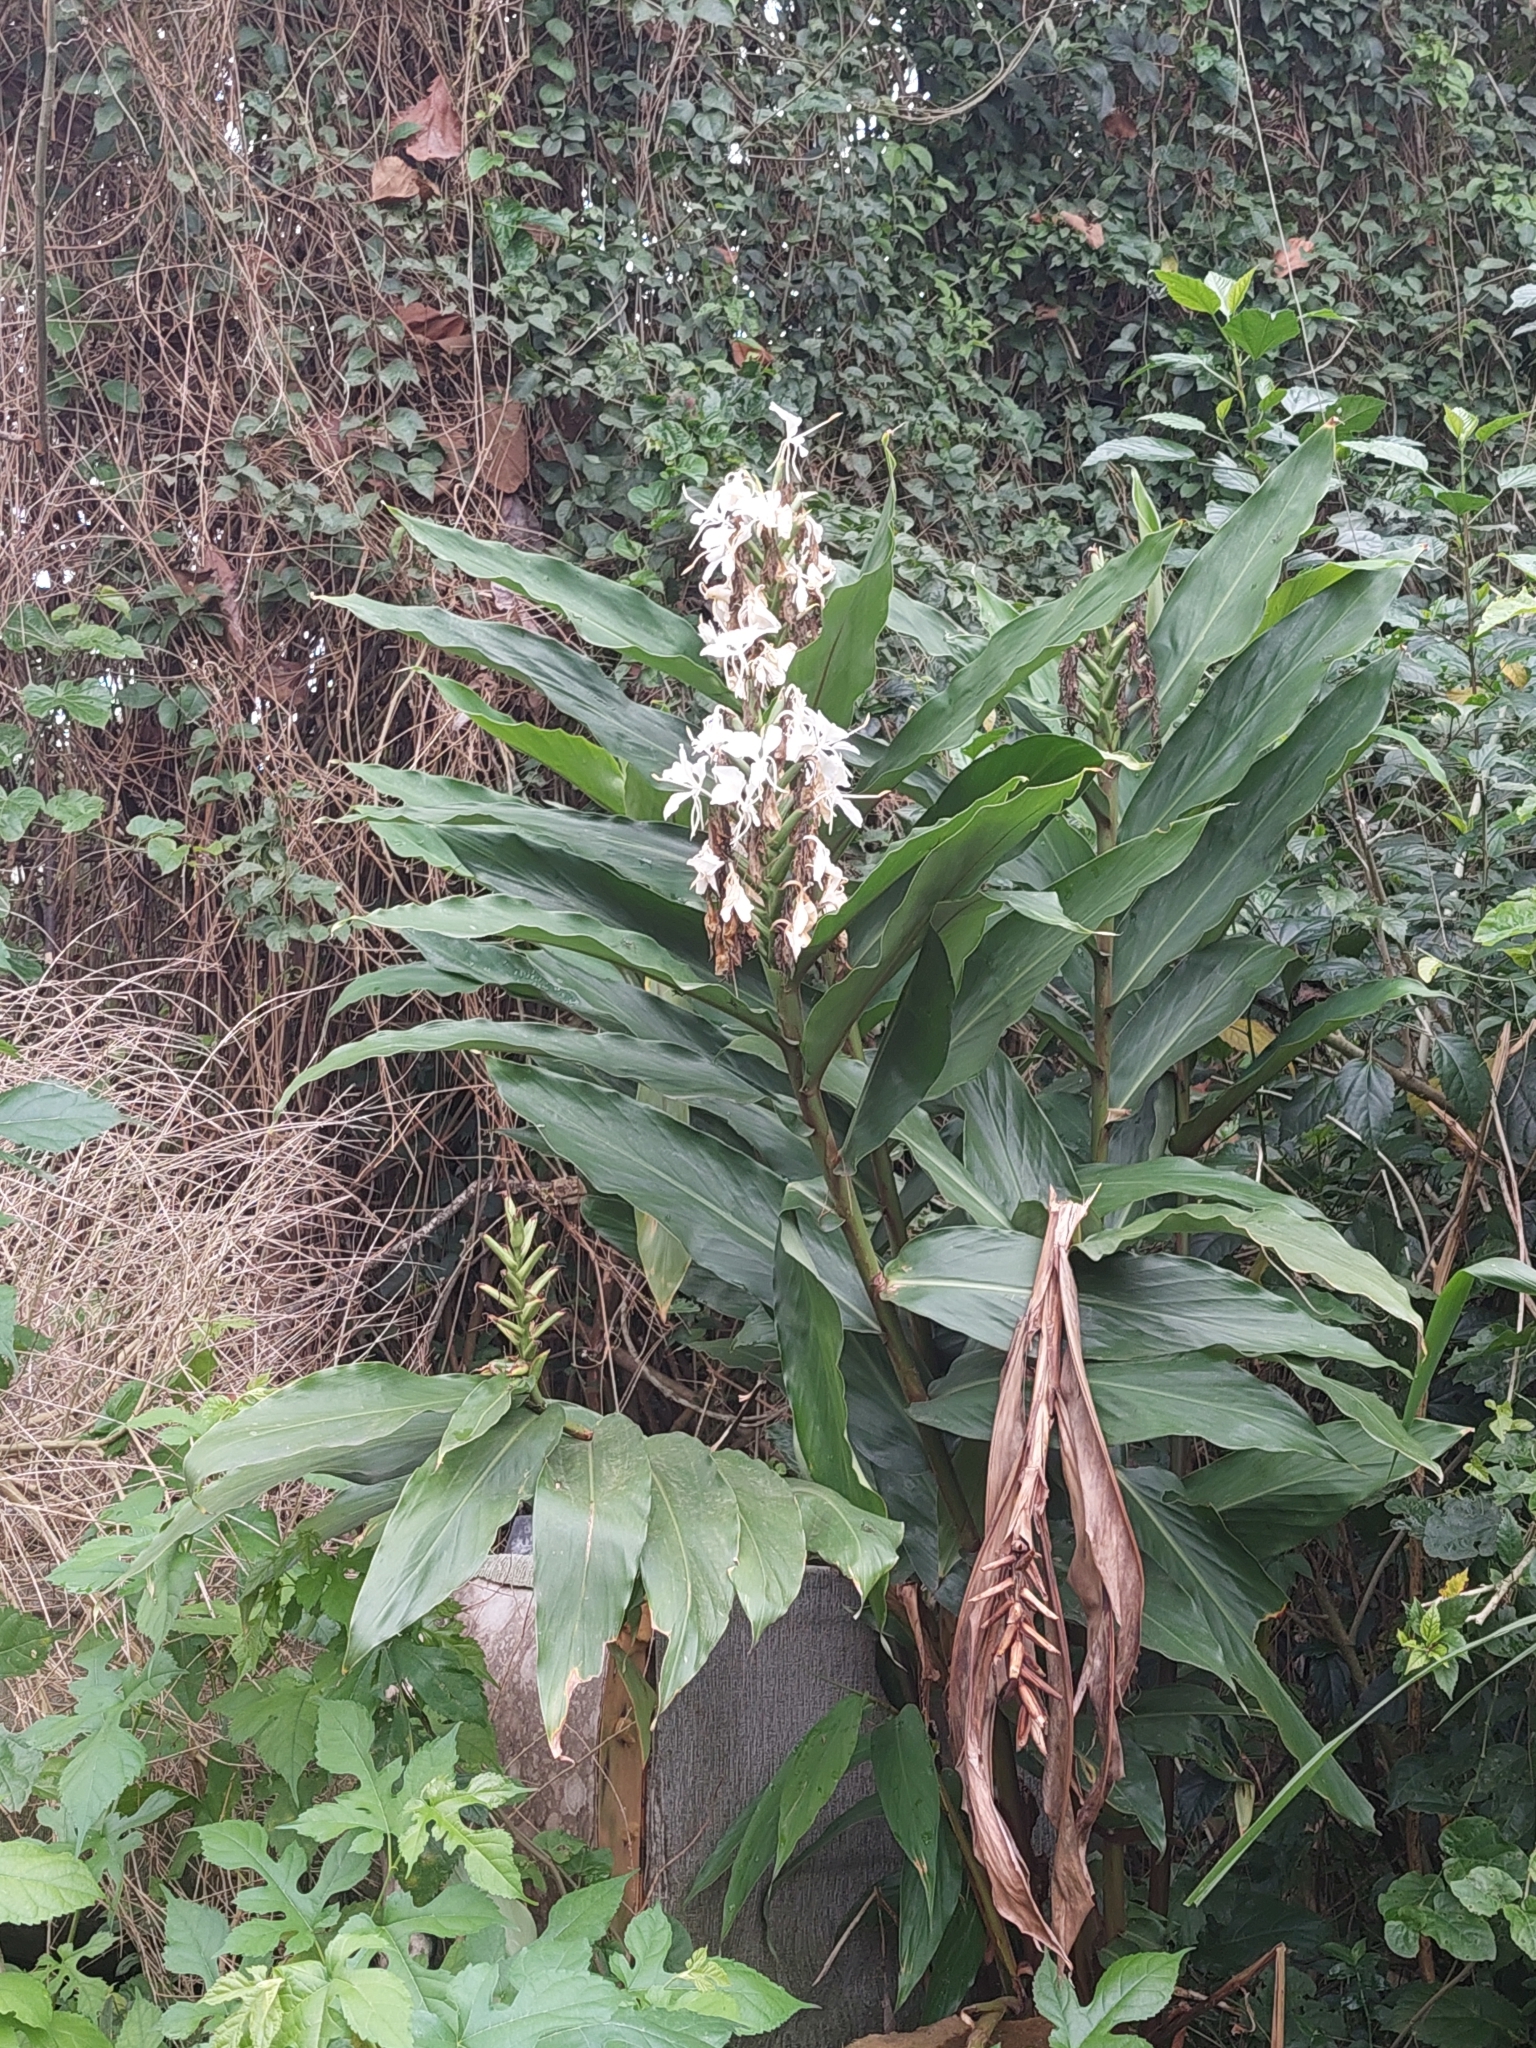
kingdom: Plantae
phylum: Tracheophyta
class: Liliopsida
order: Zingiberales
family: Zingiberaceae
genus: Hedychium
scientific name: Hedychium coronarium
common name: White garland-lily
